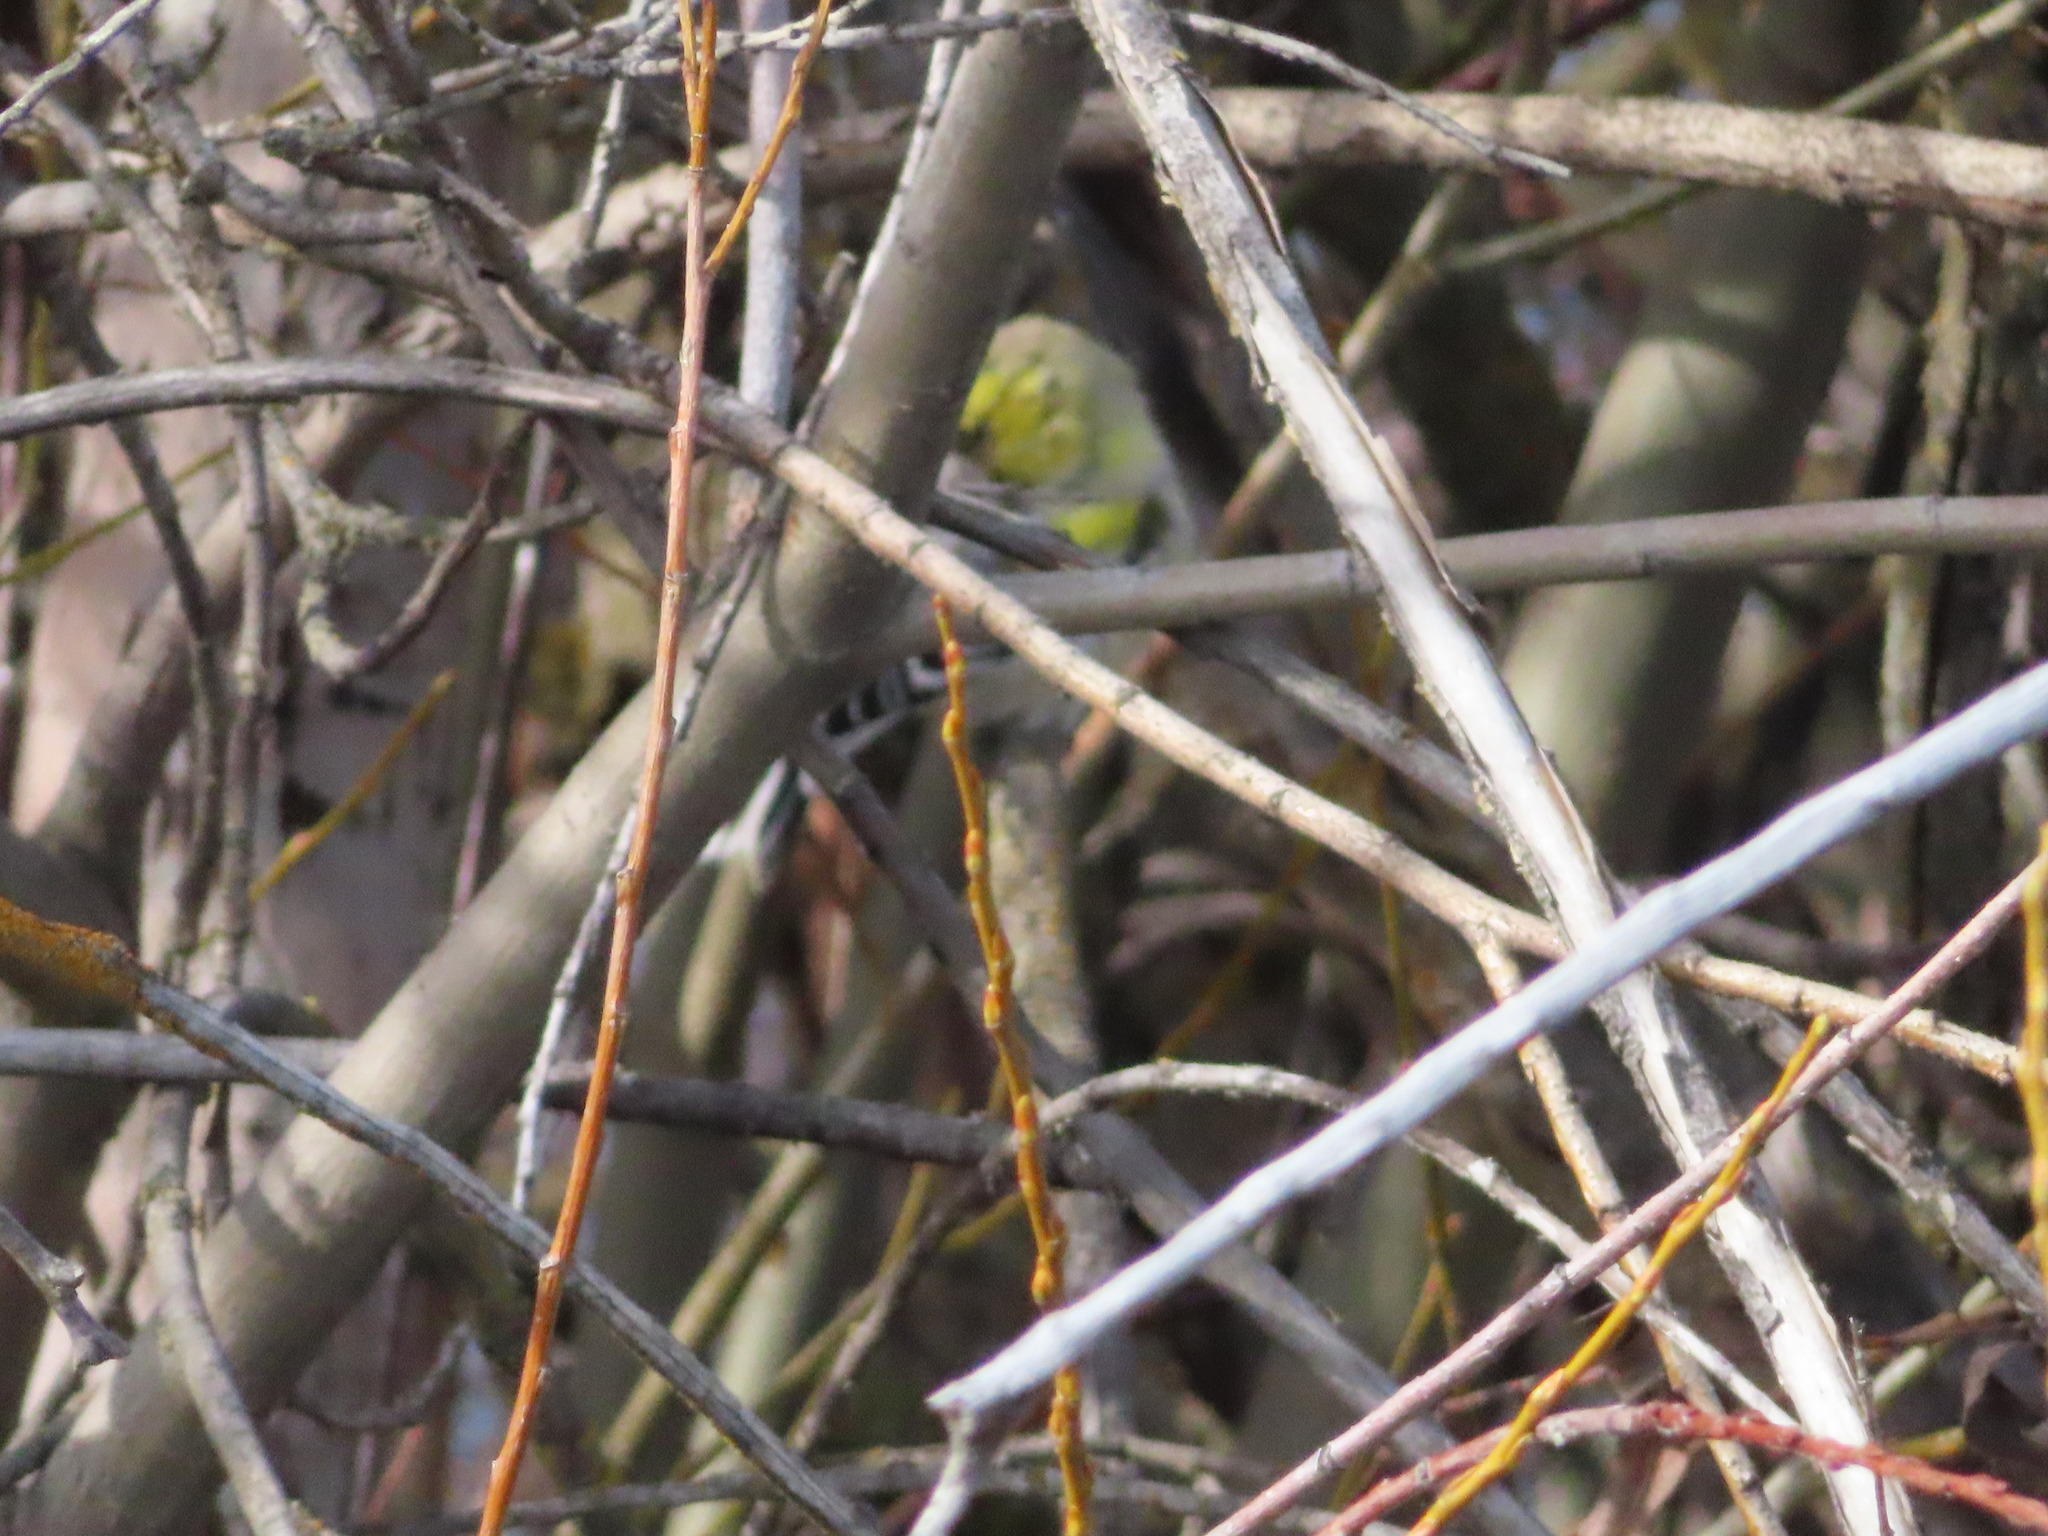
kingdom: Animalia
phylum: Chordata
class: Aves
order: Passeriformes
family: Fringillidae
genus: Spinus
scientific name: Spinus tristis
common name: American goldfinch
